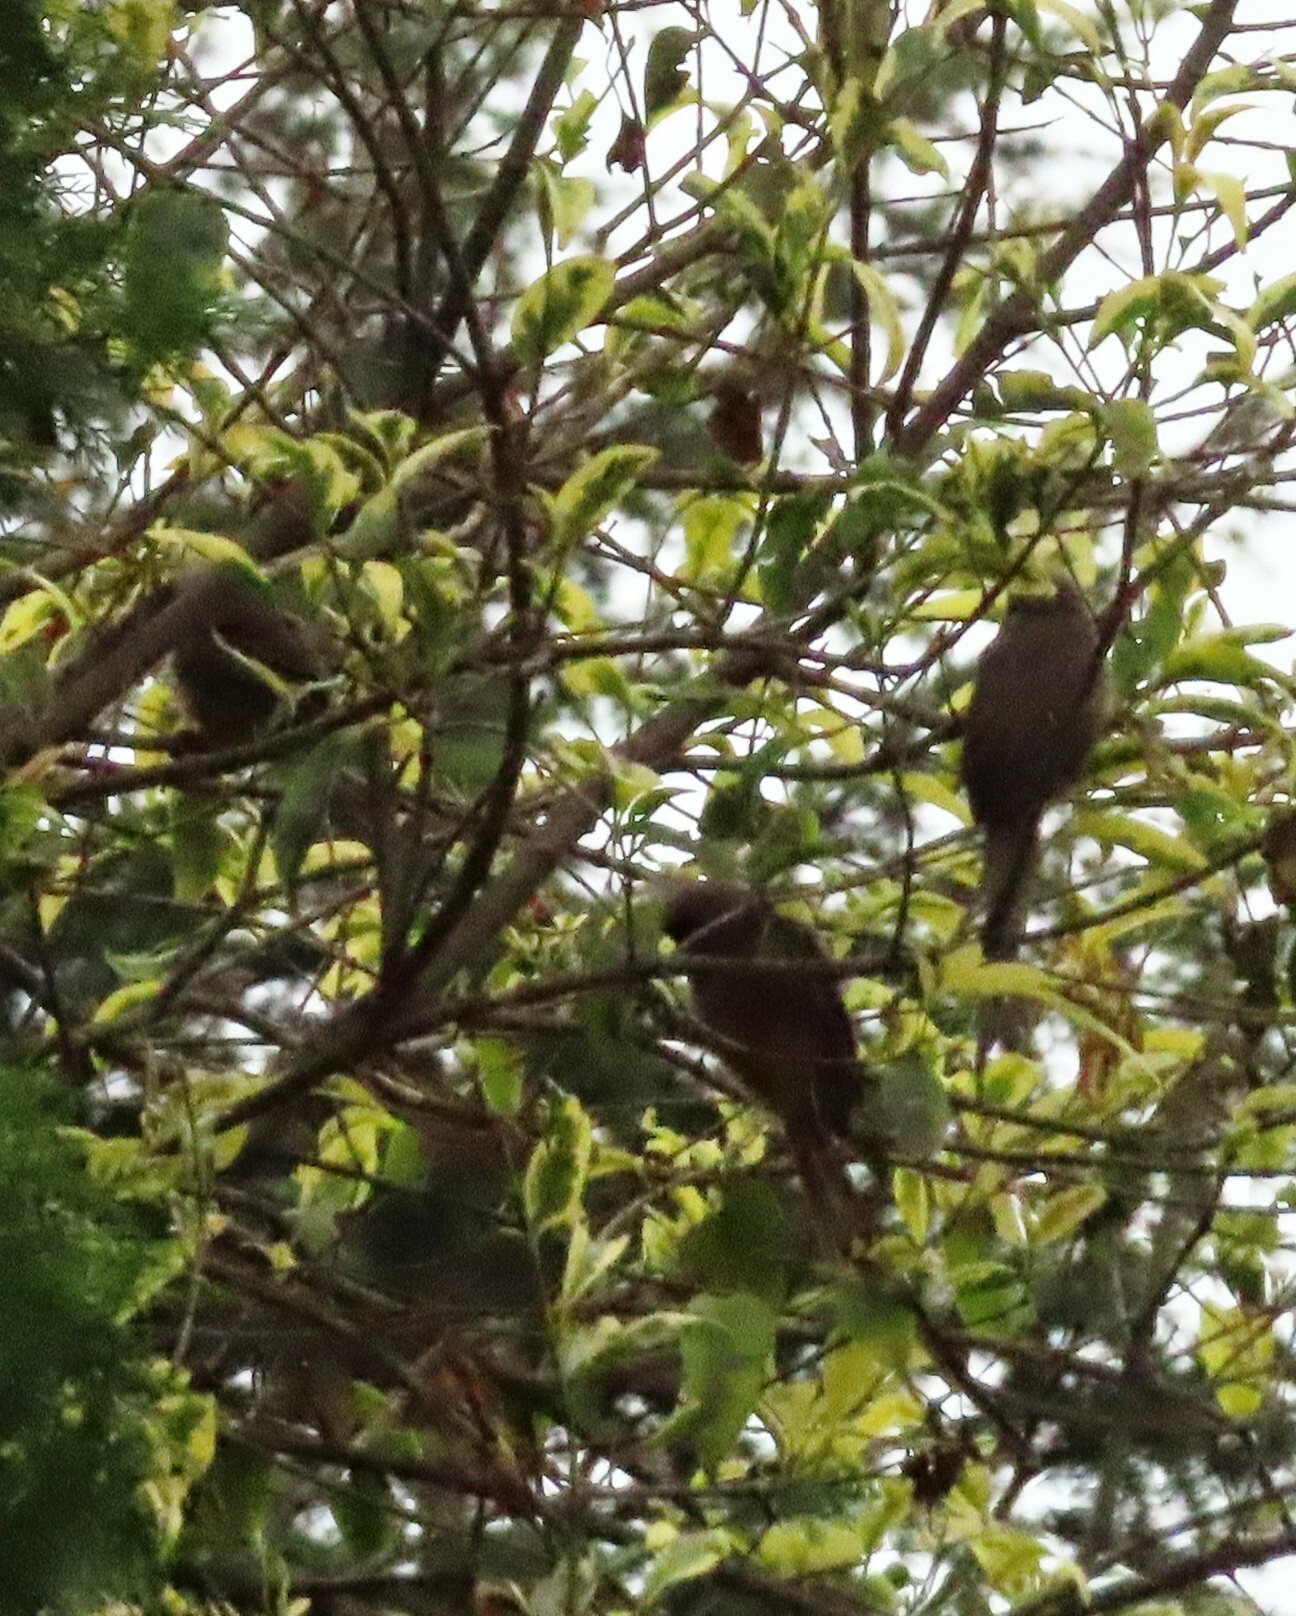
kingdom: Animalia
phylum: Chordata
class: Aves
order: Coliiformes
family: Coliidae
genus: Colius
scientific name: Colius striatus
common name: Speckled mousebird
